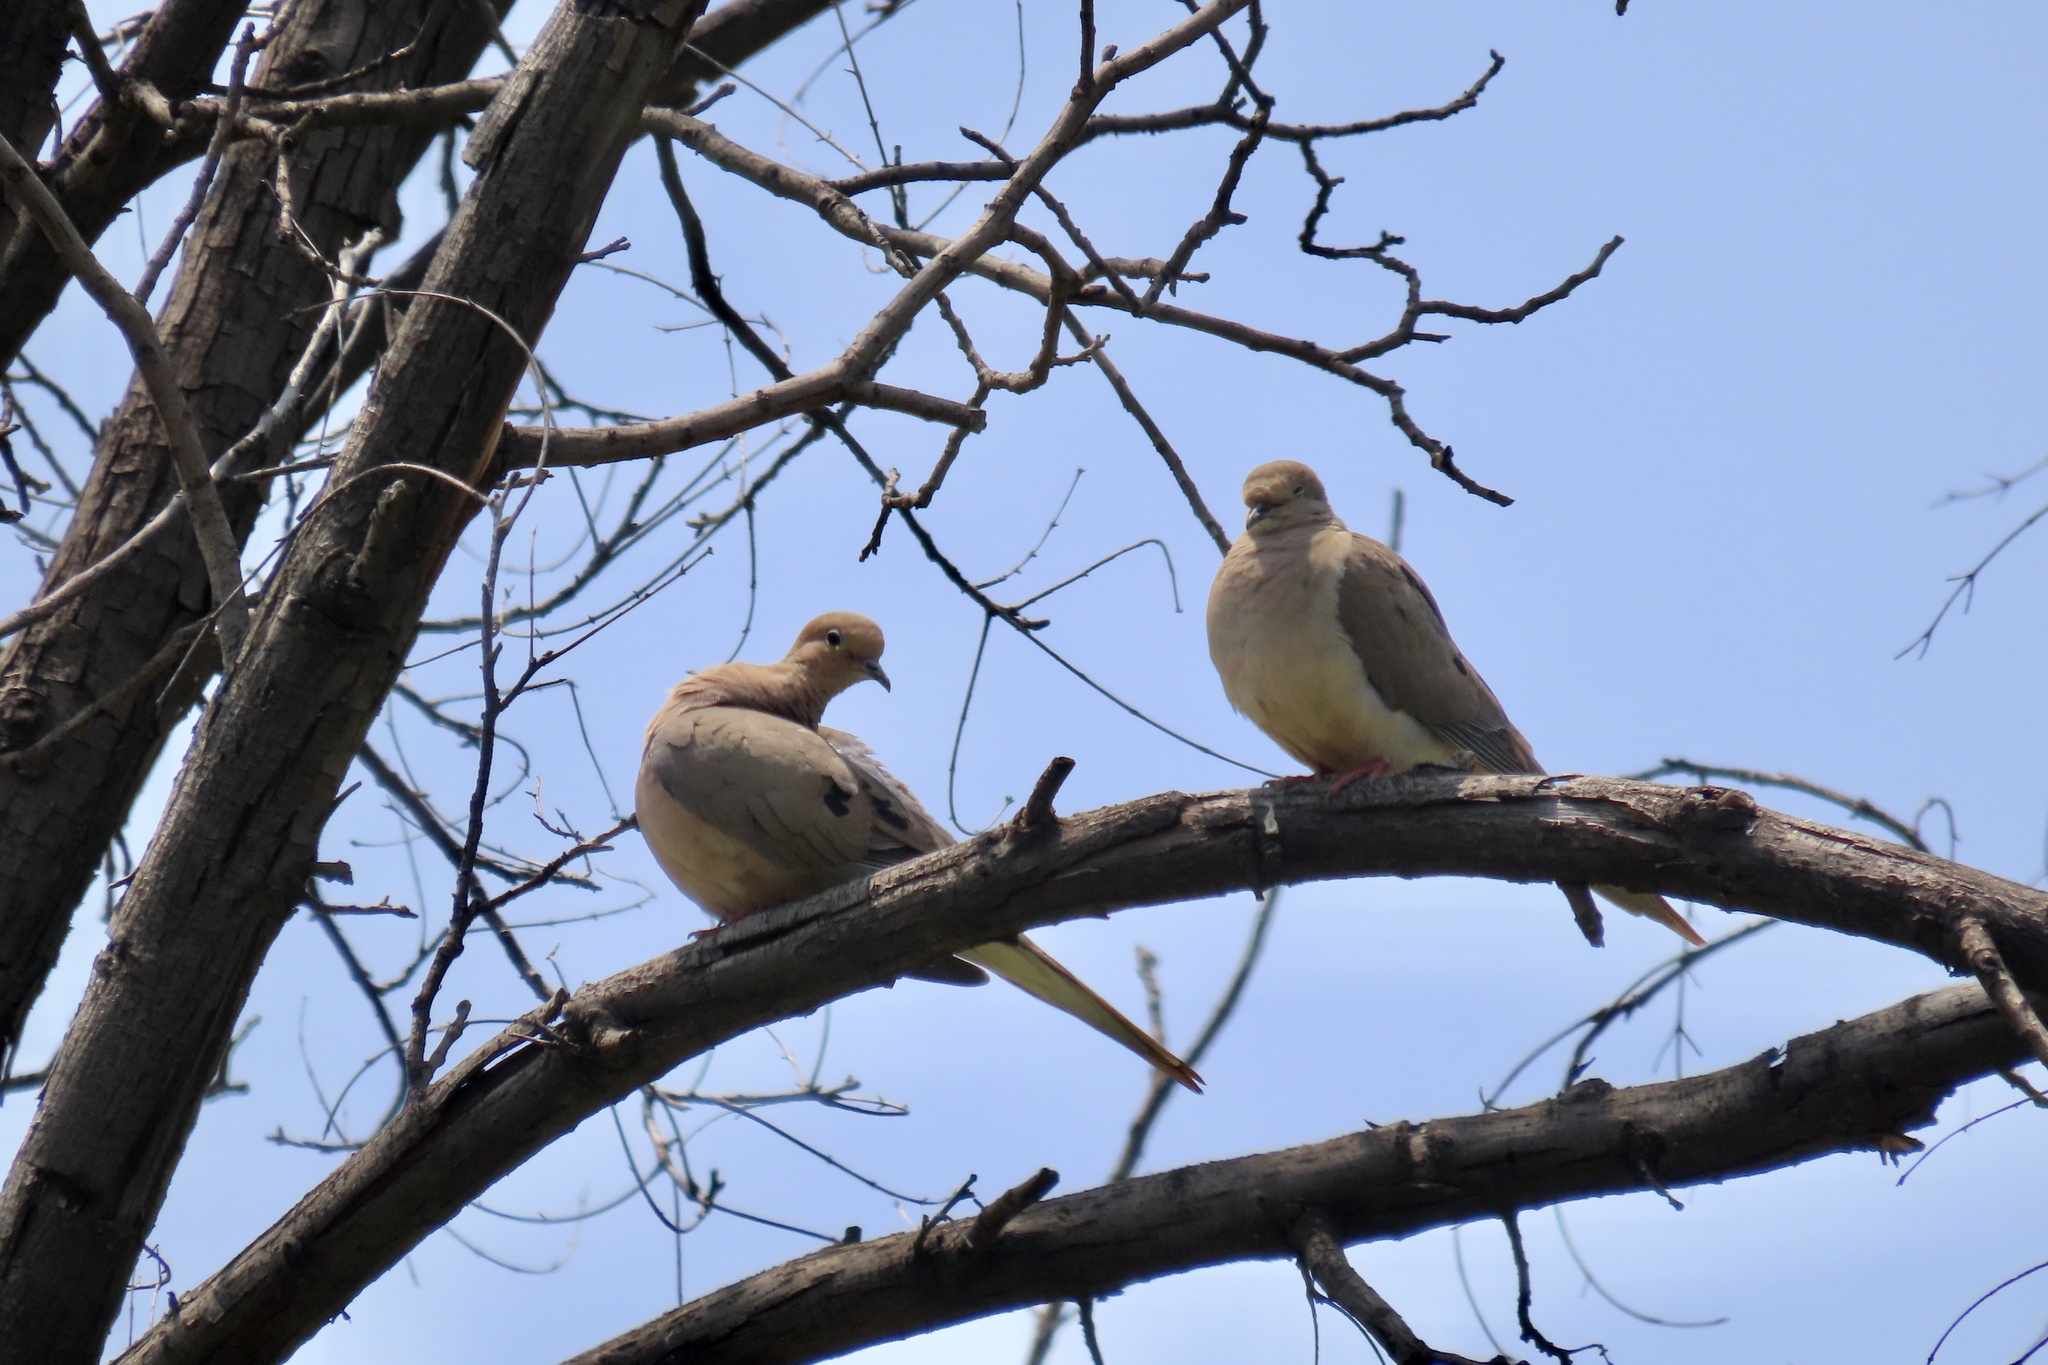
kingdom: Animalia
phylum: Chordata
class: Aves
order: Columbiformes
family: Columbidae
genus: Zenaida
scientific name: Zenaida macroura
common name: Mourning dove
